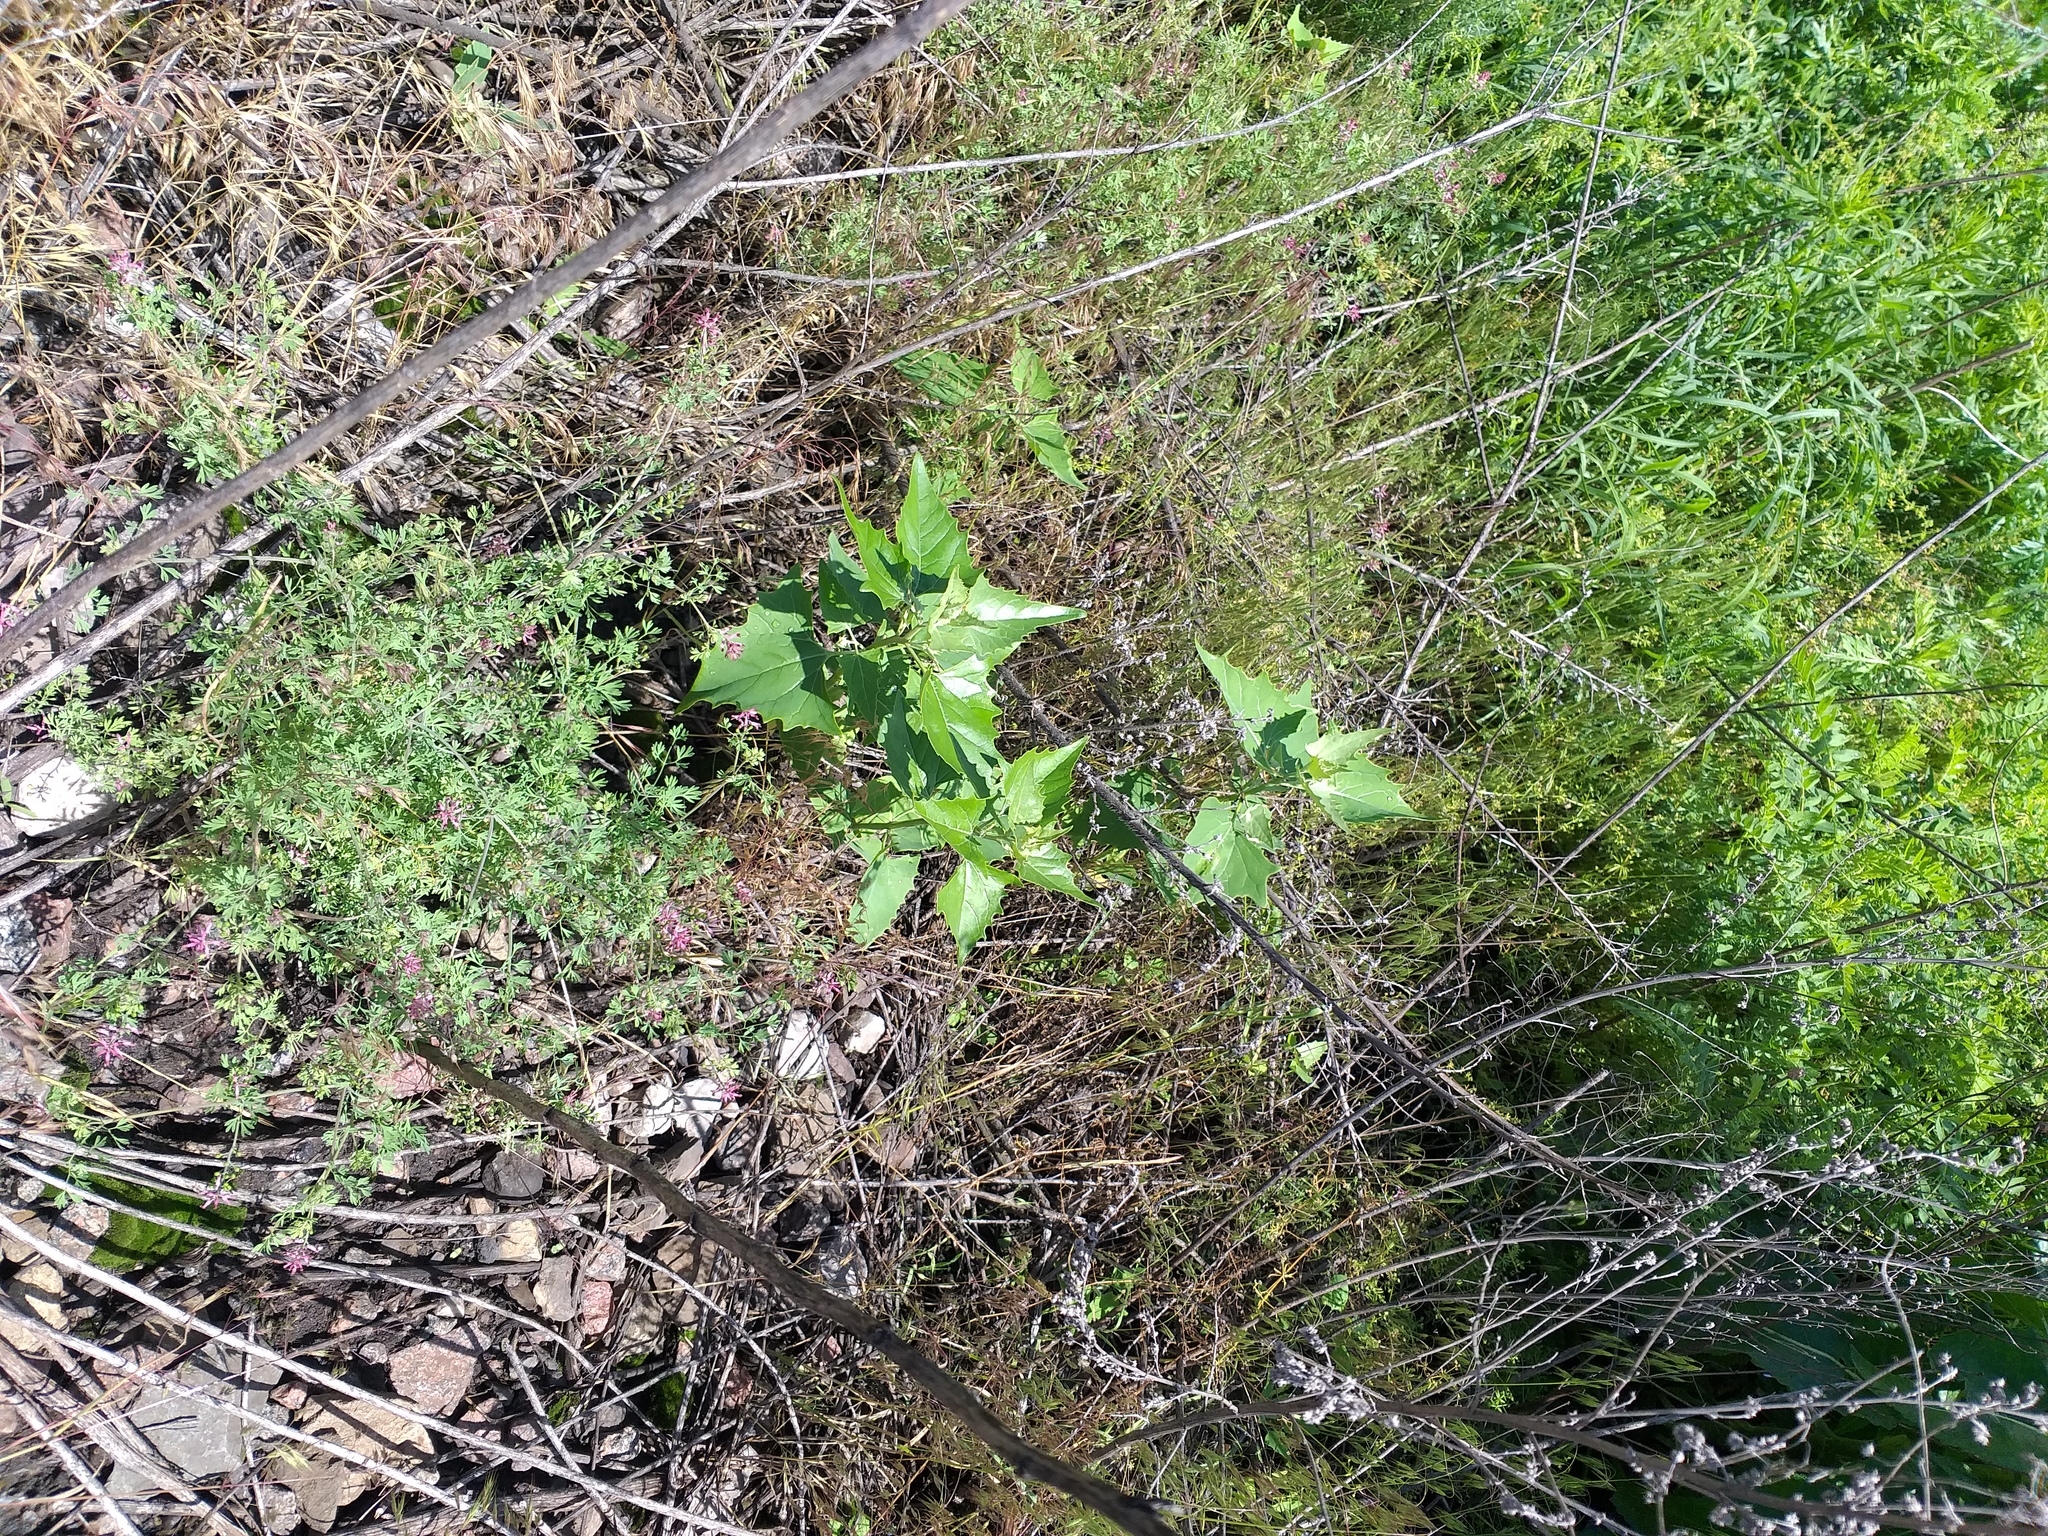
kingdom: Plantae
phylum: Tracheophyta
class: Magnoliopsida
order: Caryophyllales
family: Amaranthaceae
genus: Atriplex
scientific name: Atriplex sagittata
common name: Purple orache
